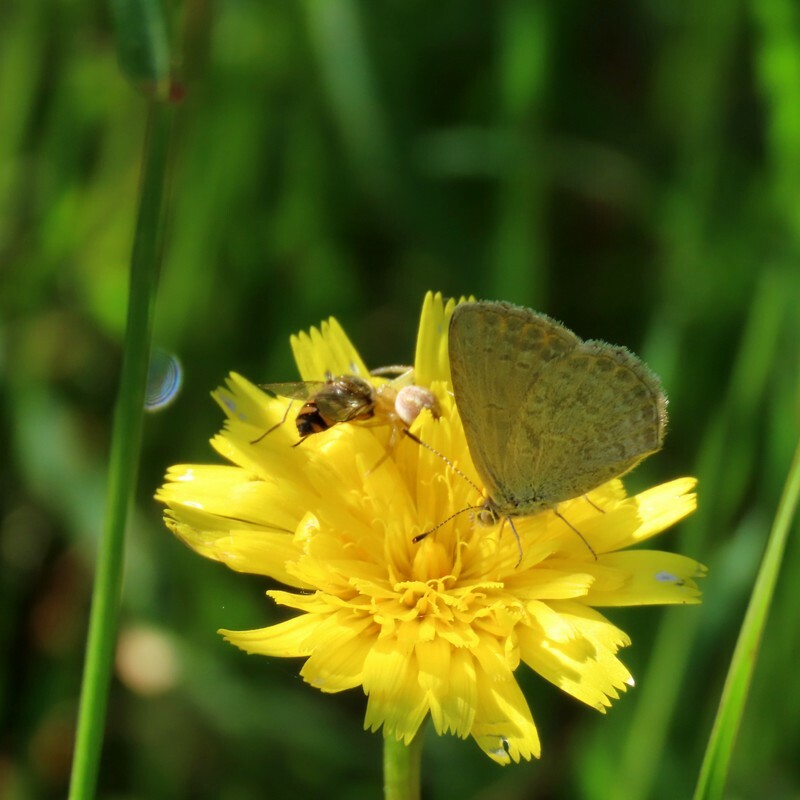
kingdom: Animalia
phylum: Arthropoda
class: Insecta
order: Lepidoptera
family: Lycaenidae
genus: Zizina
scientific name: Zizina otis
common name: Lesser grass blue
